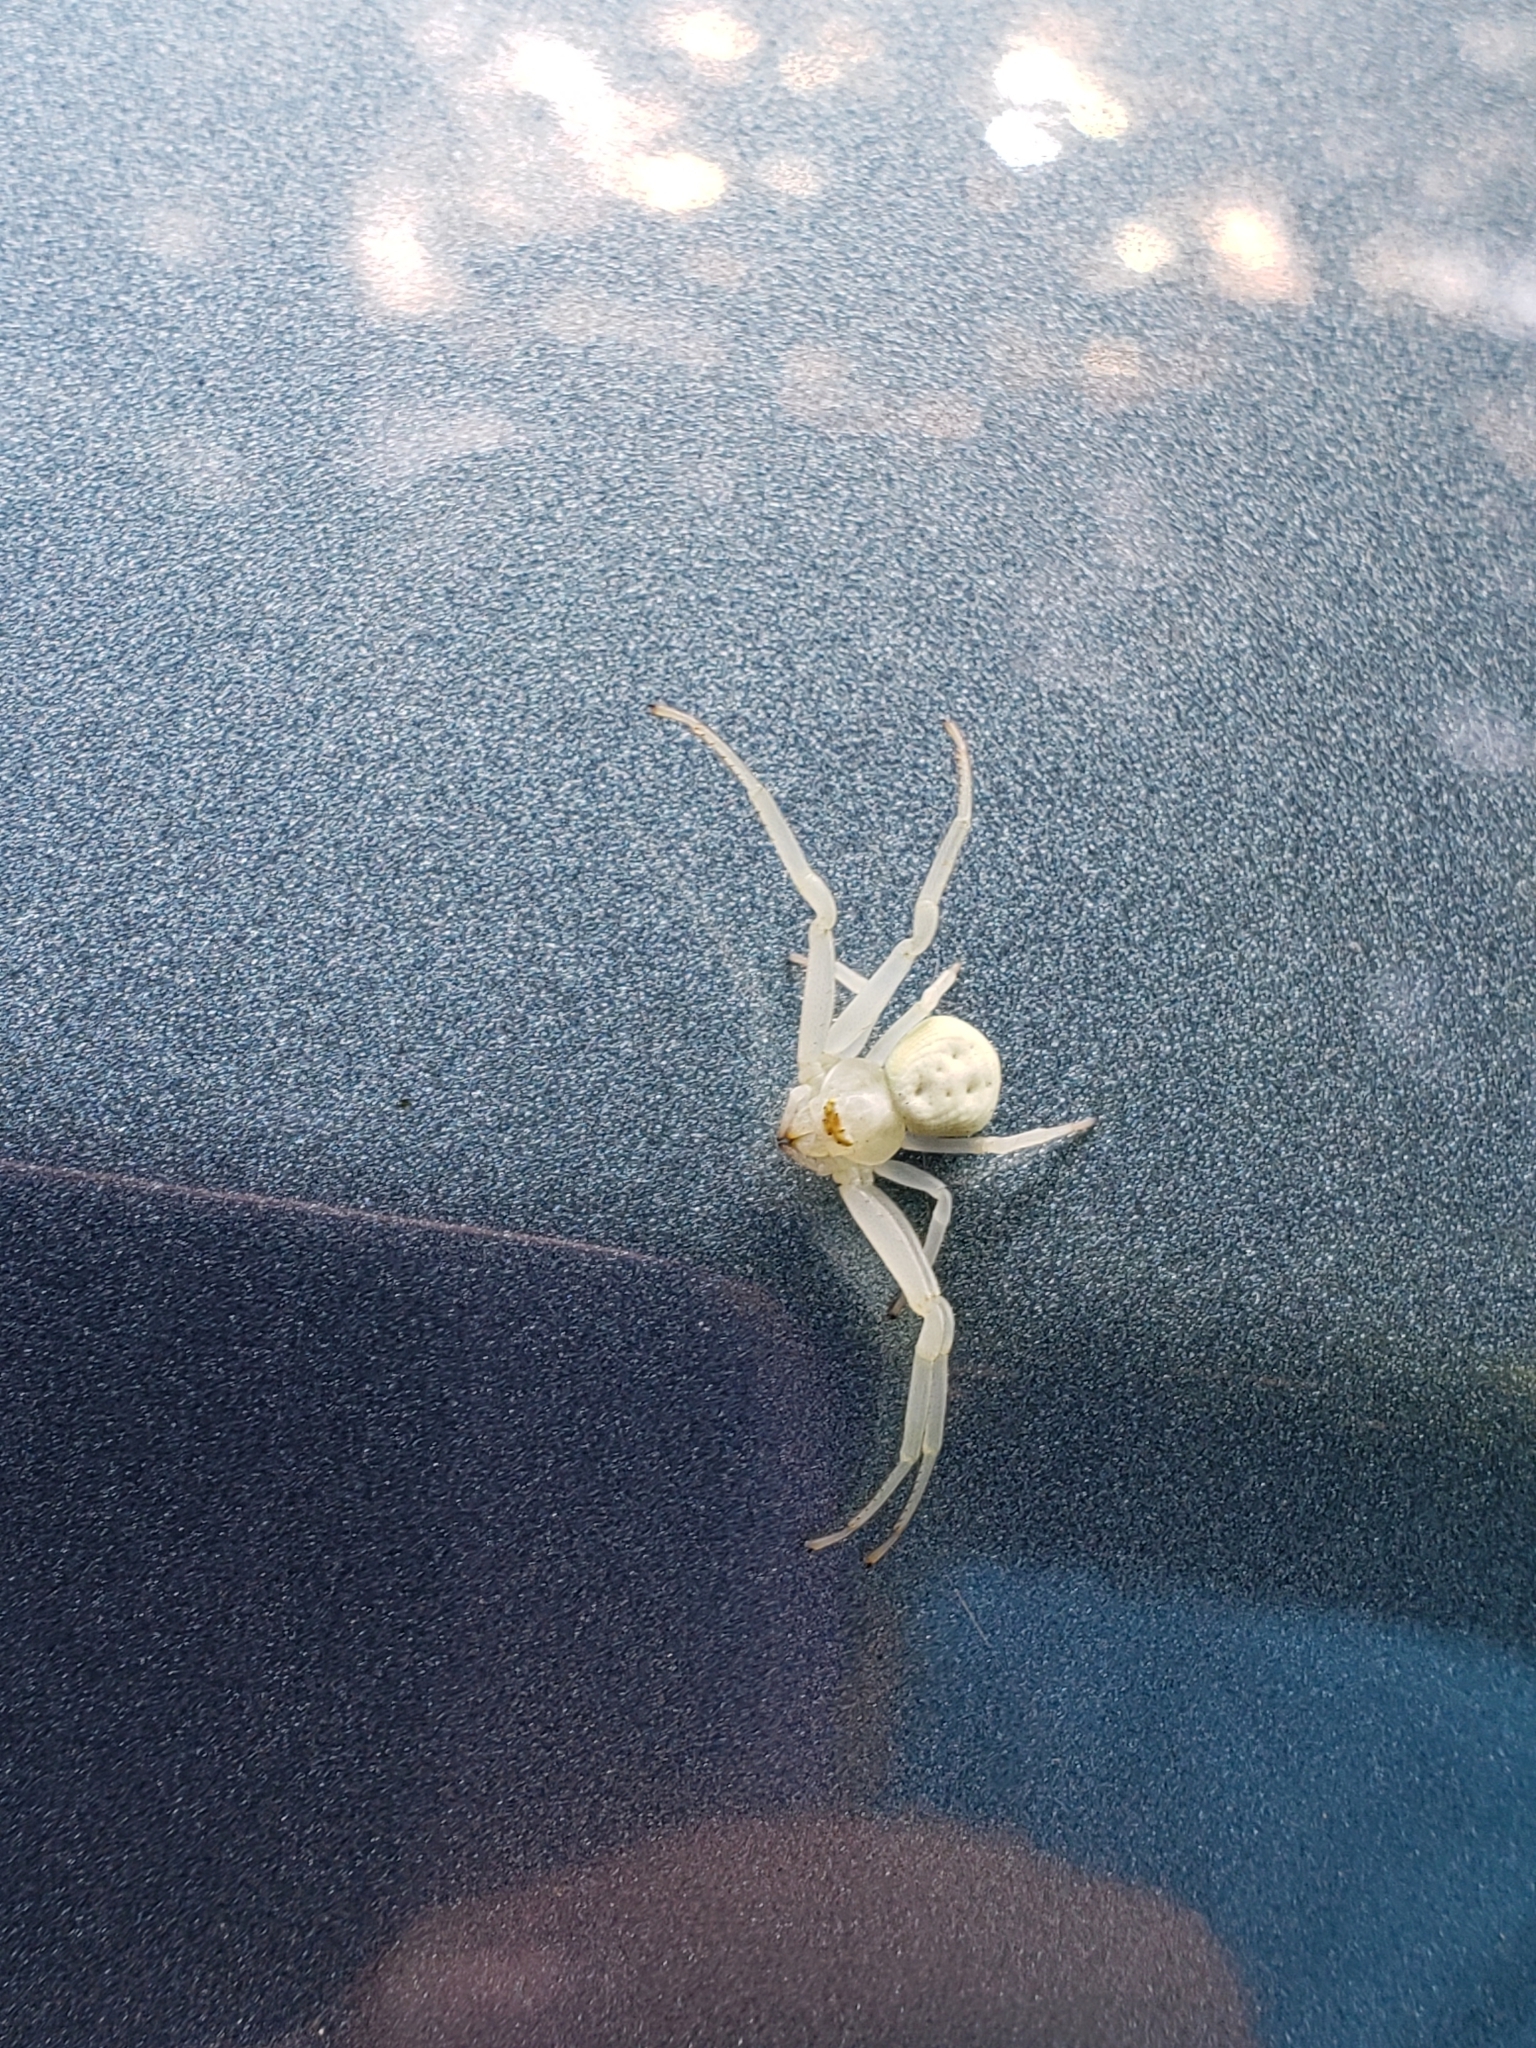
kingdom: Animalia
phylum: Arthropoda
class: Arachnida
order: Araneae
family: Thomisidae
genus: Misumena
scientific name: Misumena vatia
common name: Goldenrod crab spider
